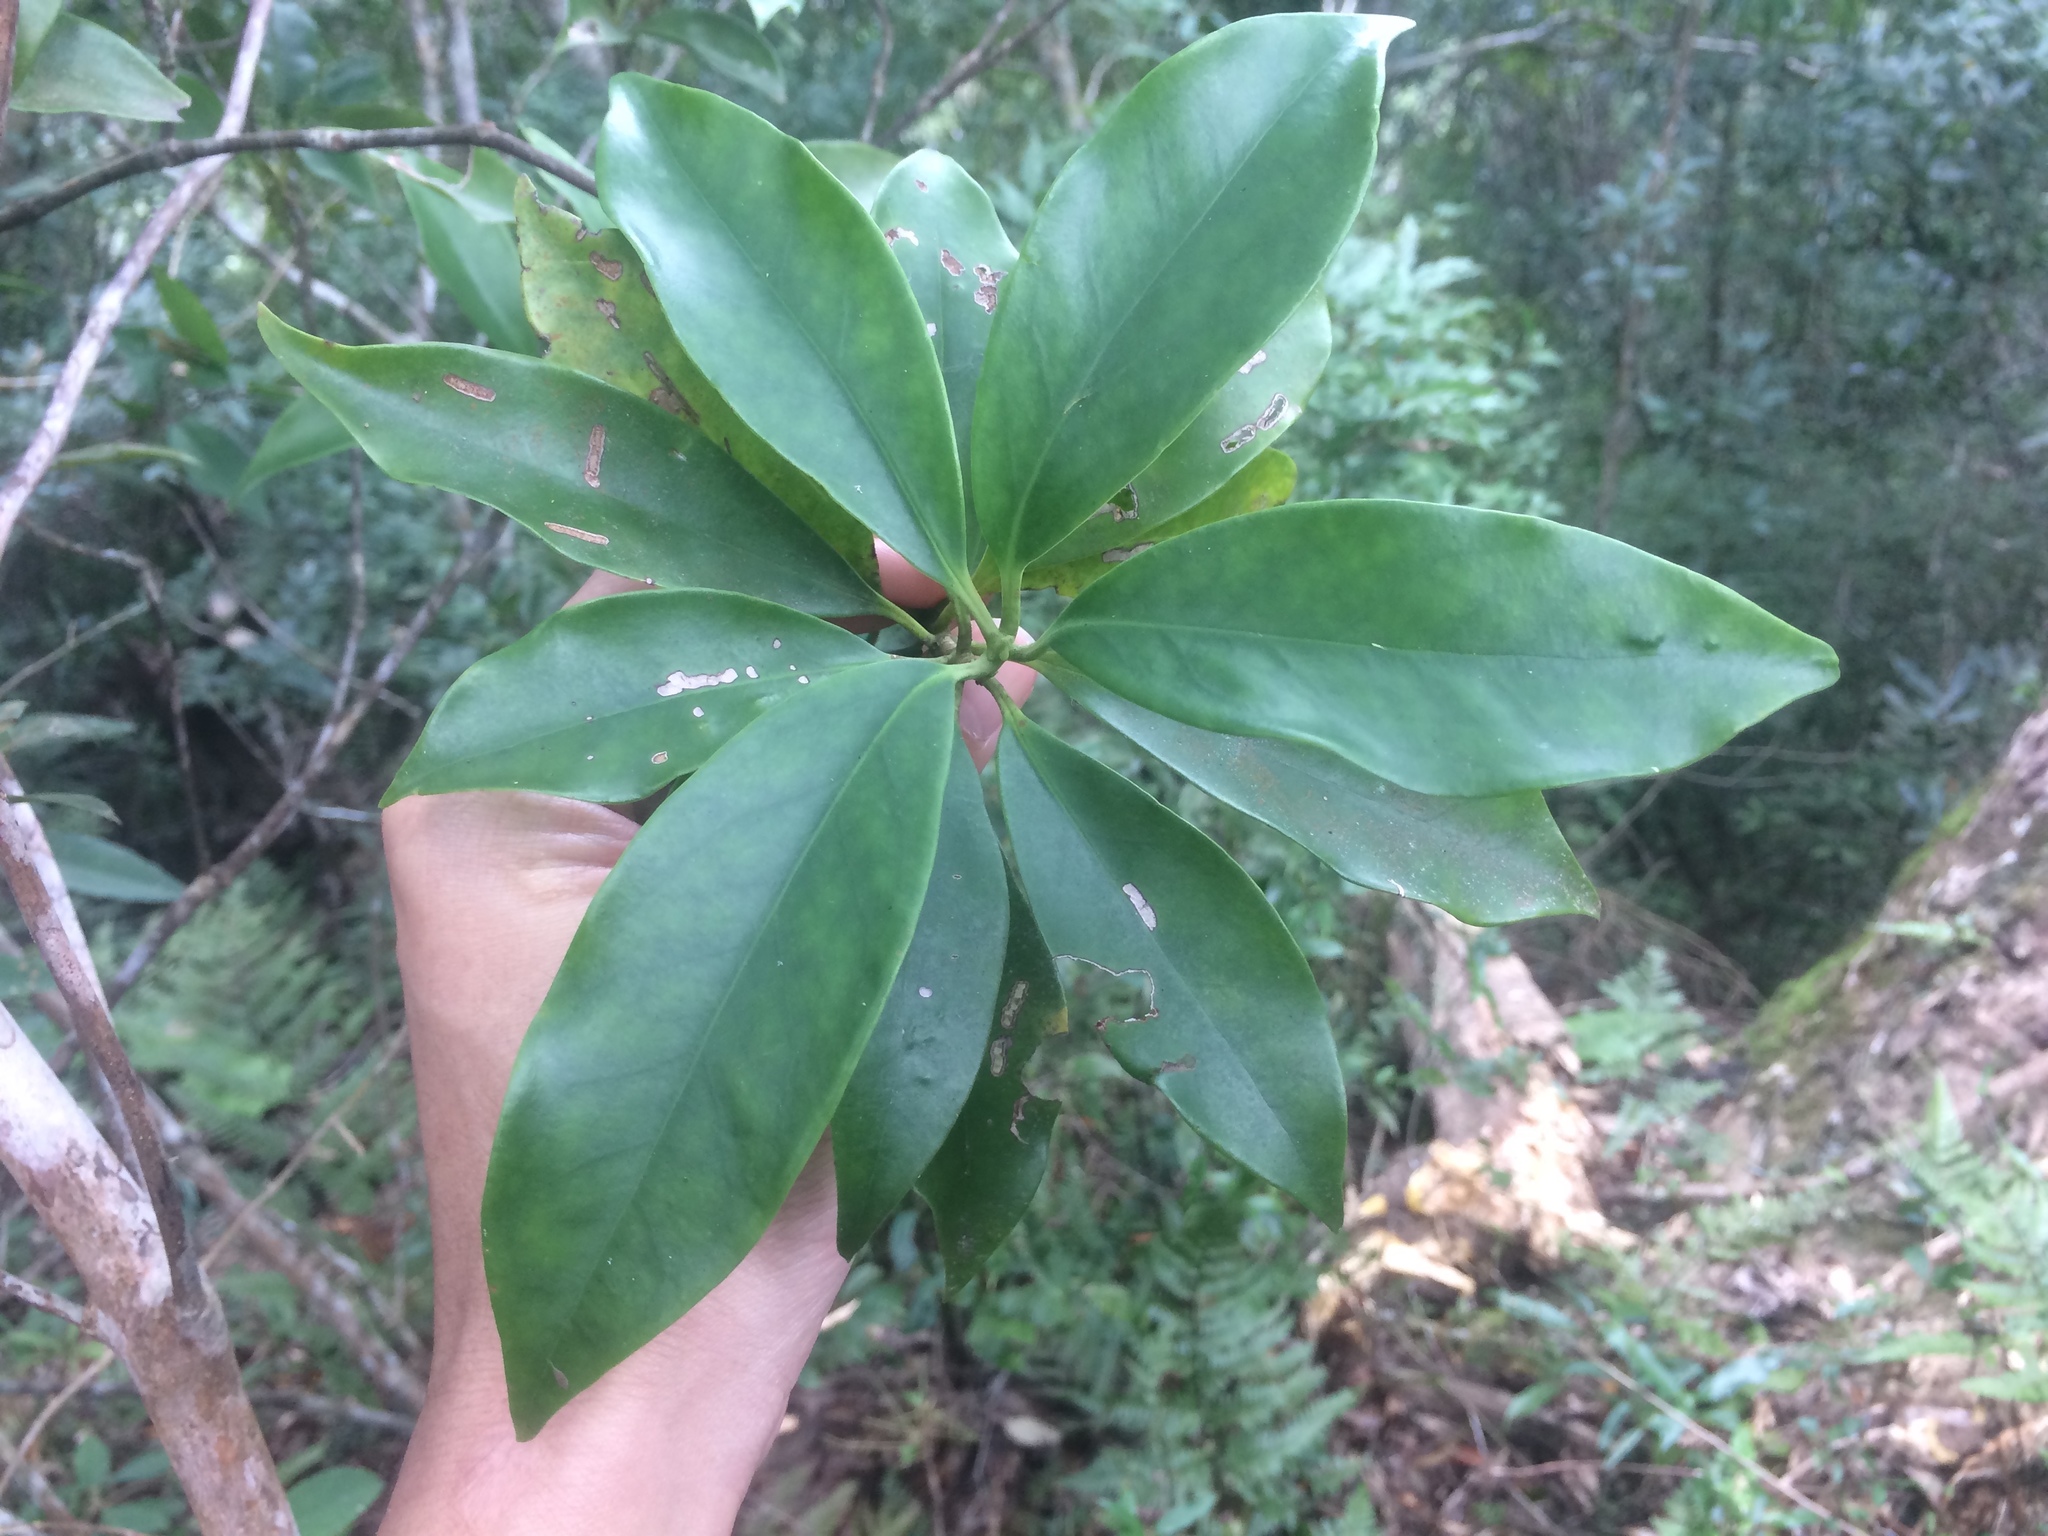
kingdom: Plantae
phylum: Tracheophyta
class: Magnoliopsida
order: Austrobaileyales
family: Schisandraceae
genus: Illicium
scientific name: Illicium arborescens
